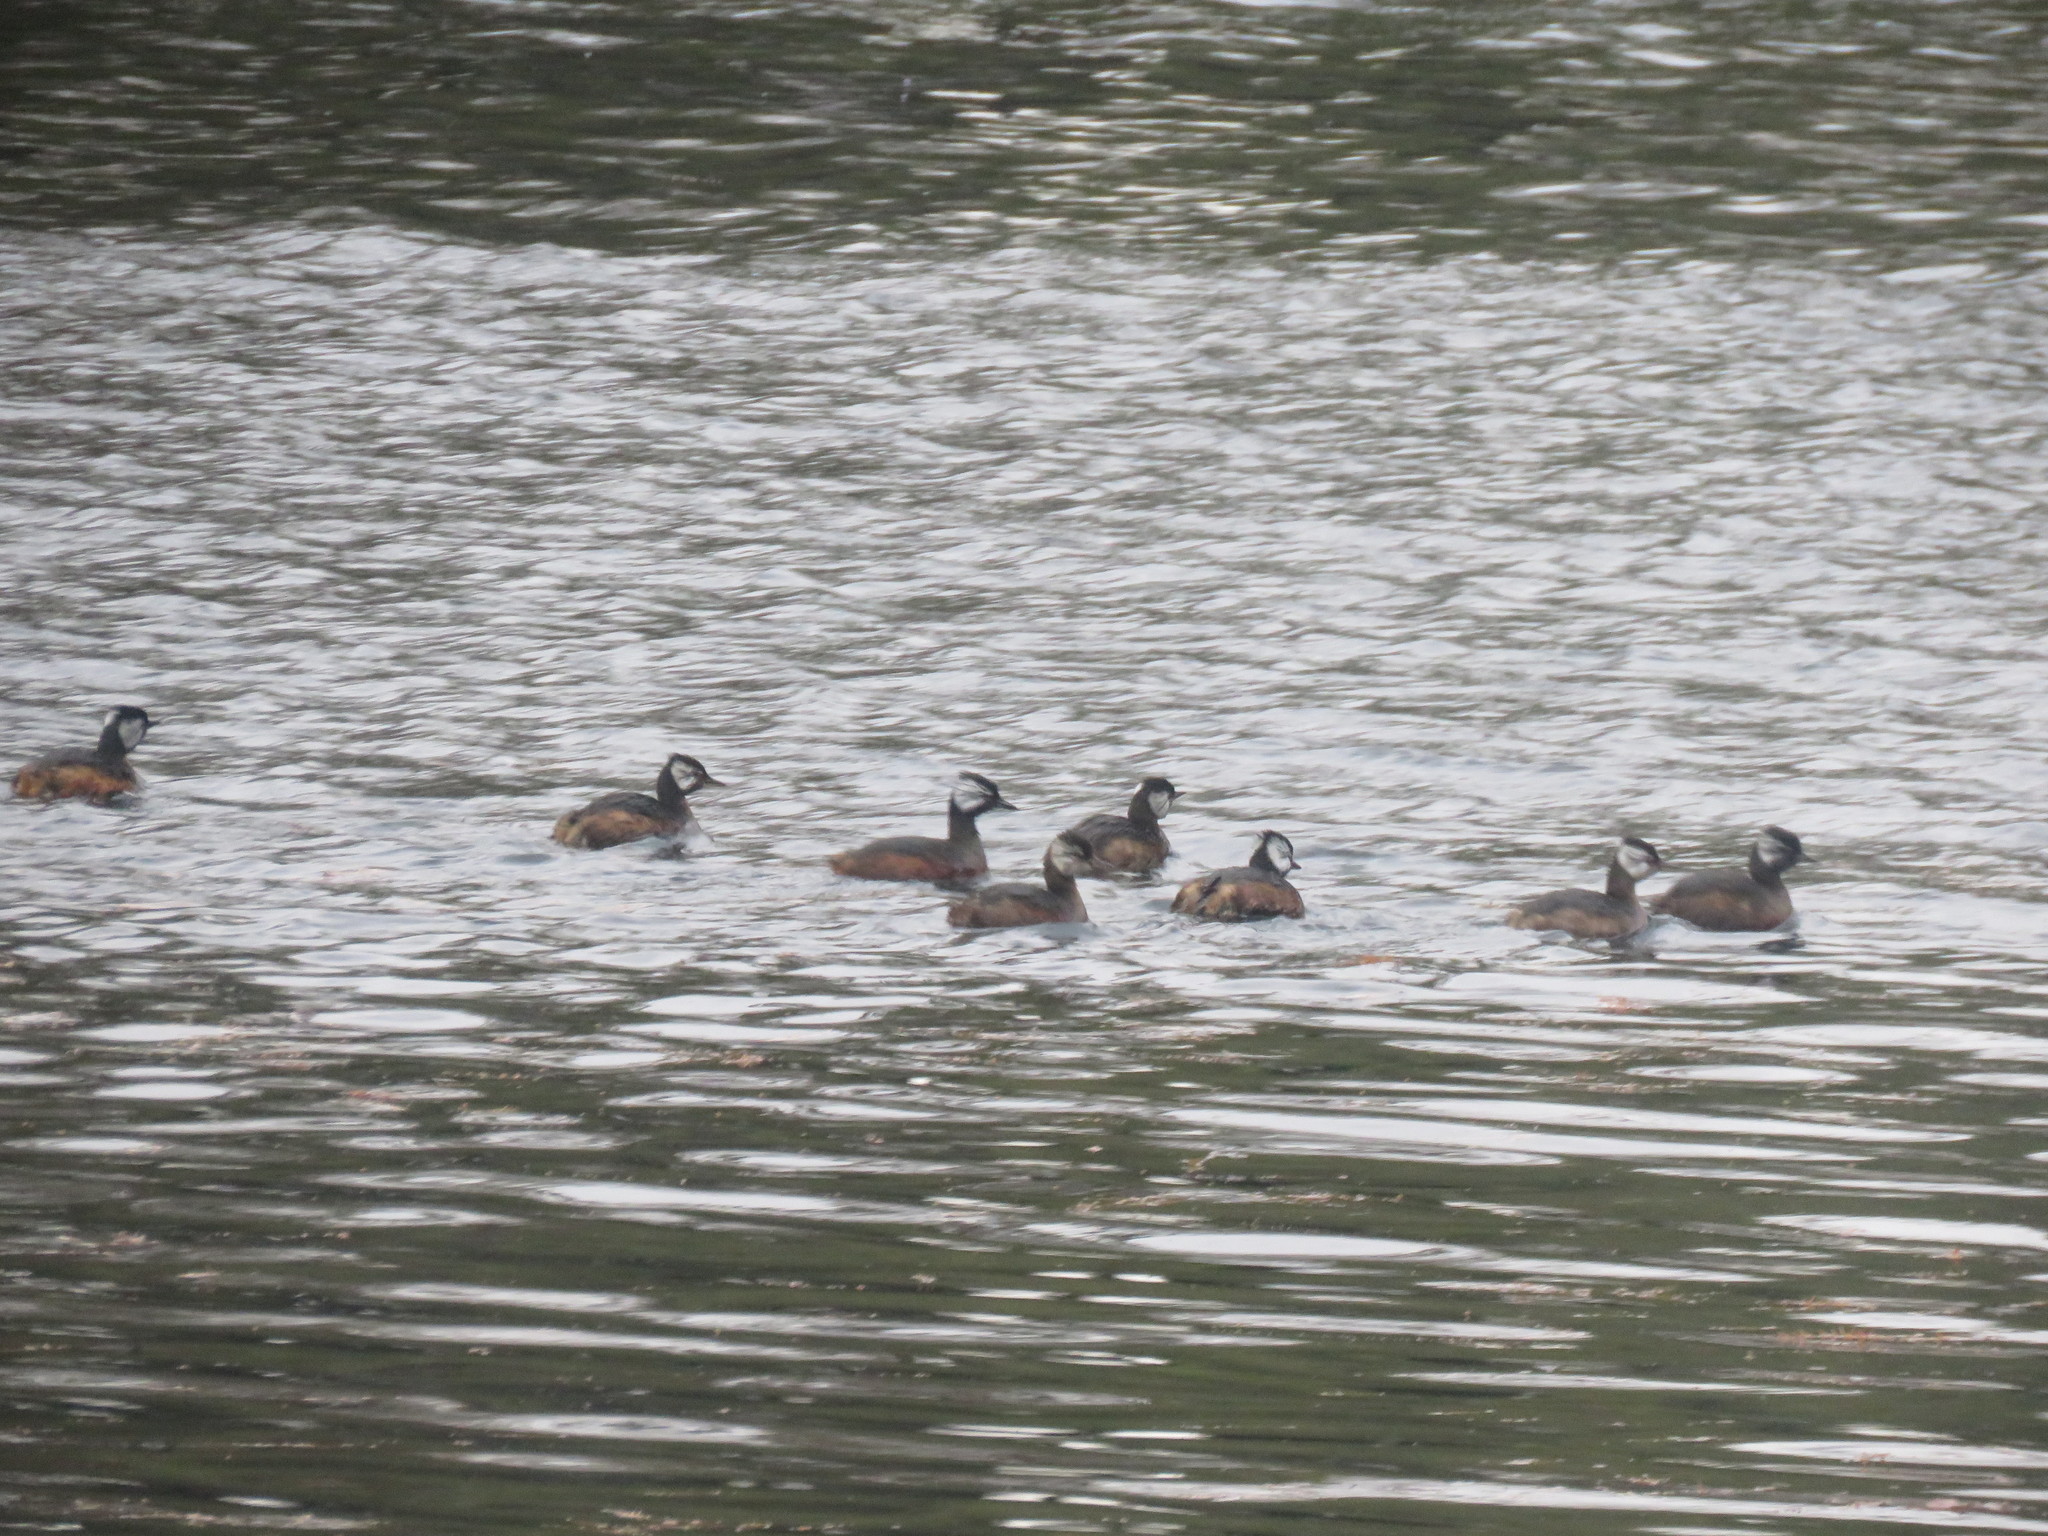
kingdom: Animalia
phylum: Chordata
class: Aves
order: Podicipediformes
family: Podicipedidae
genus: Rollandia
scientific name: Rollandia rolland
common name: White-tufted grebe
